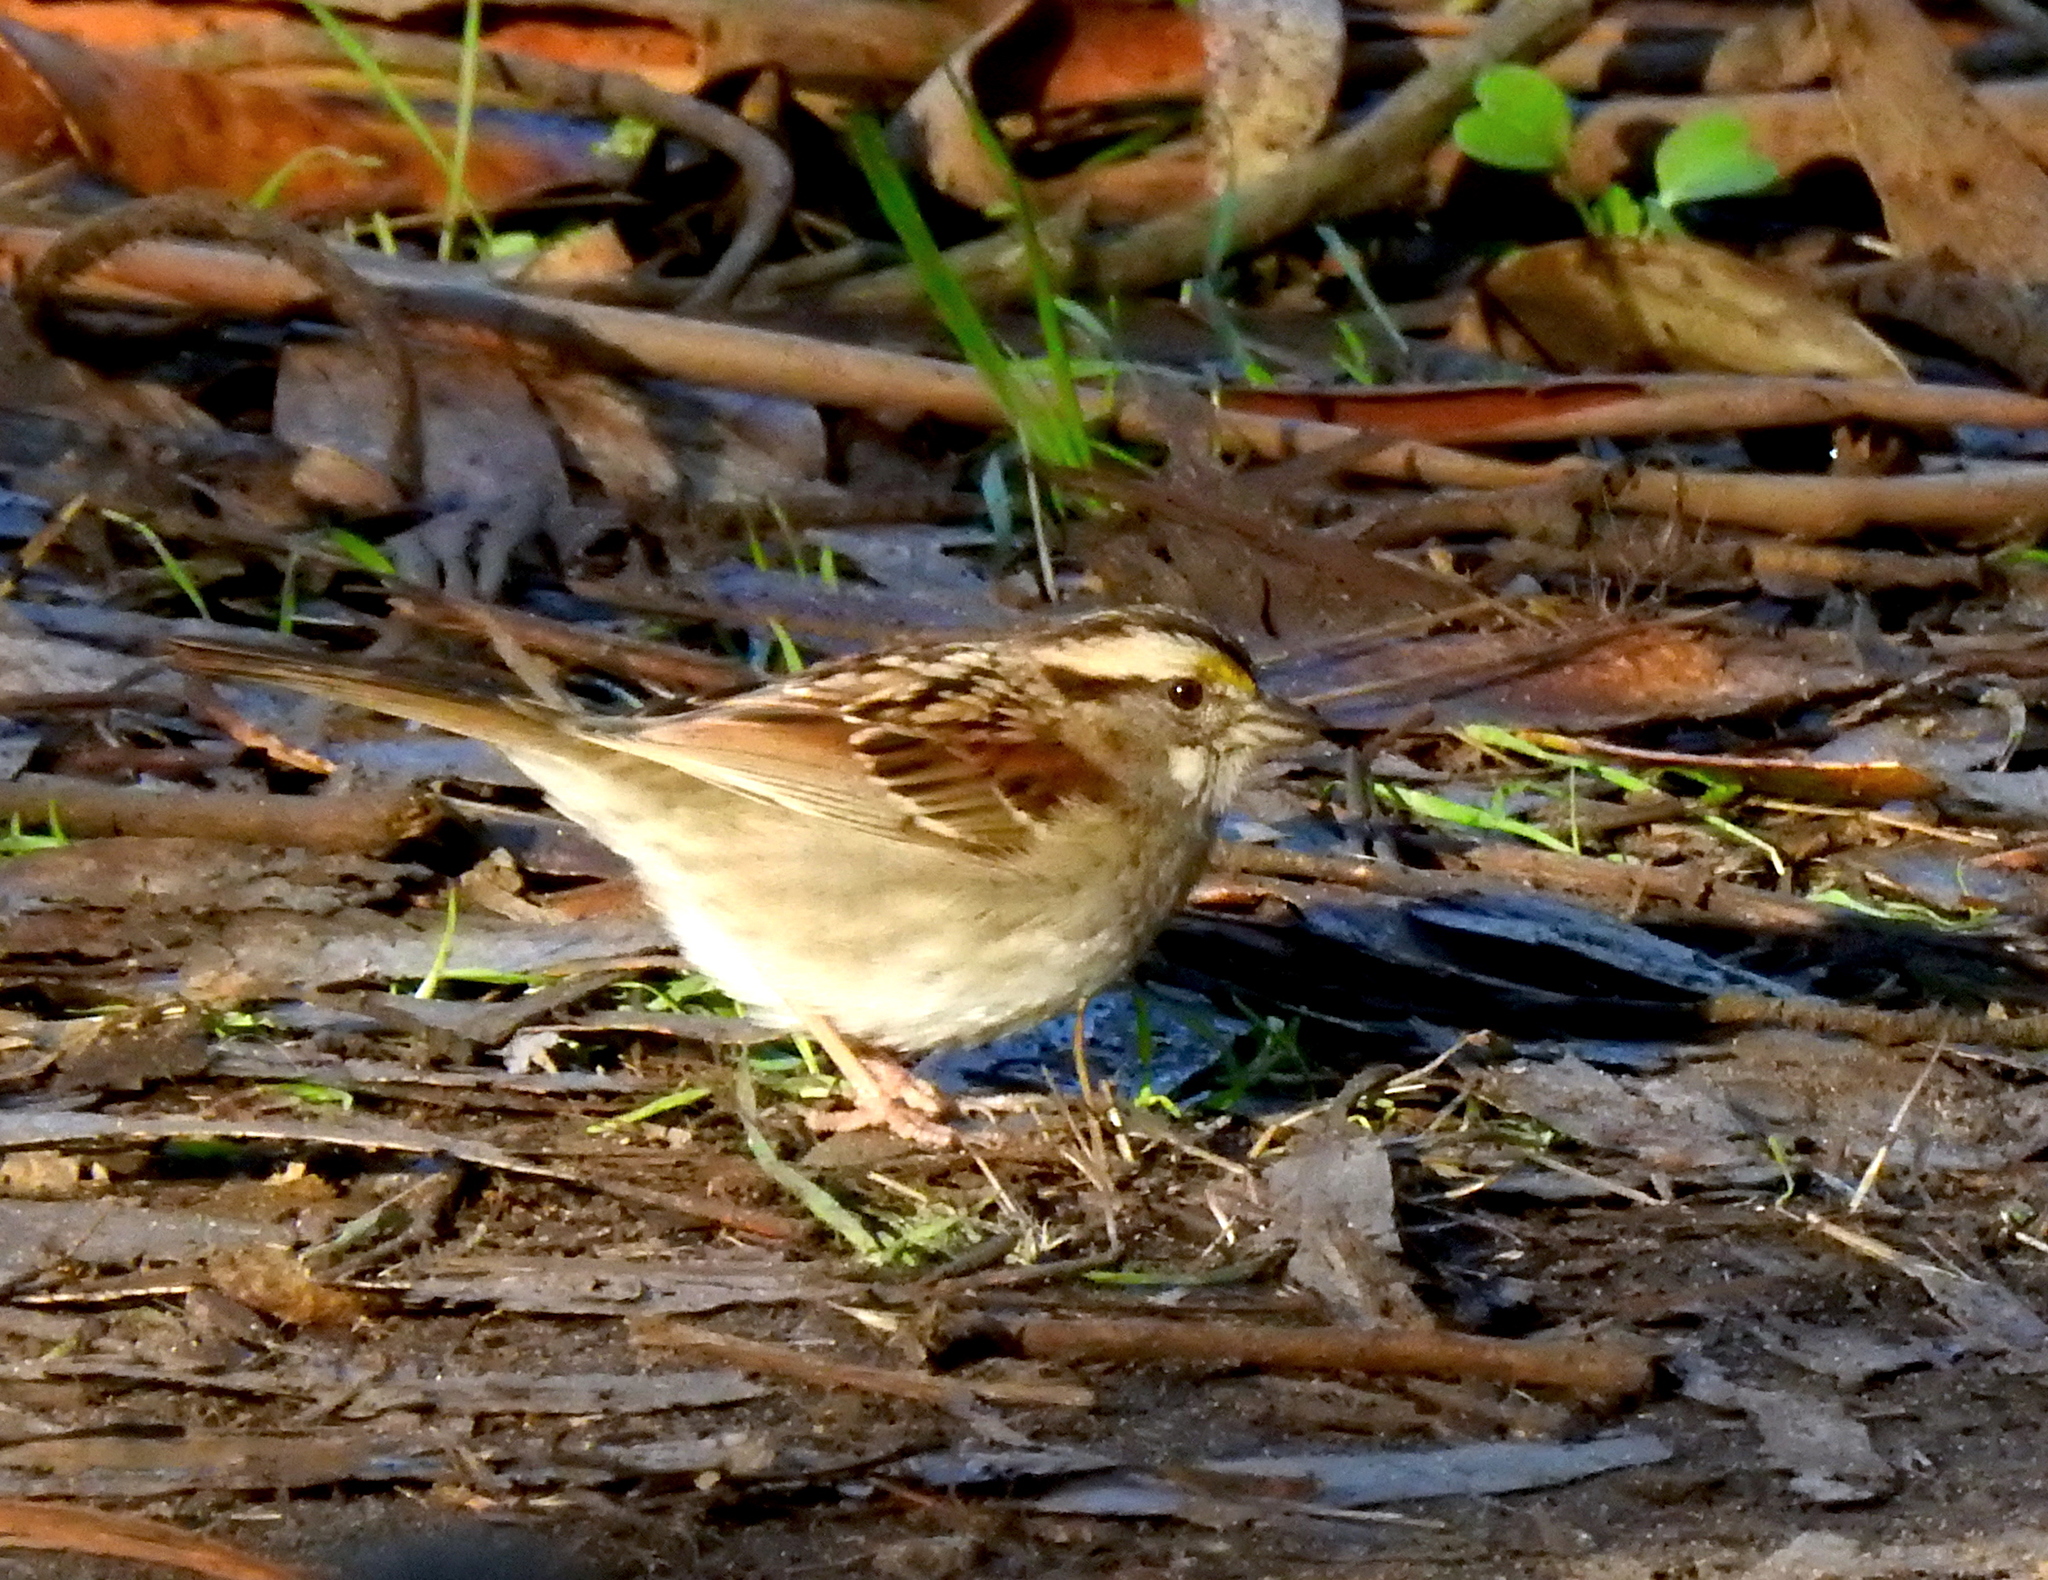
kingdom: Animalia
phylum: Chordata
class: Aves
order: Passeriformes
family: Passerellidae
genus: Zonotrichia
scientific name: Zonotrichia albicollis
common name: White-throated sparrow
